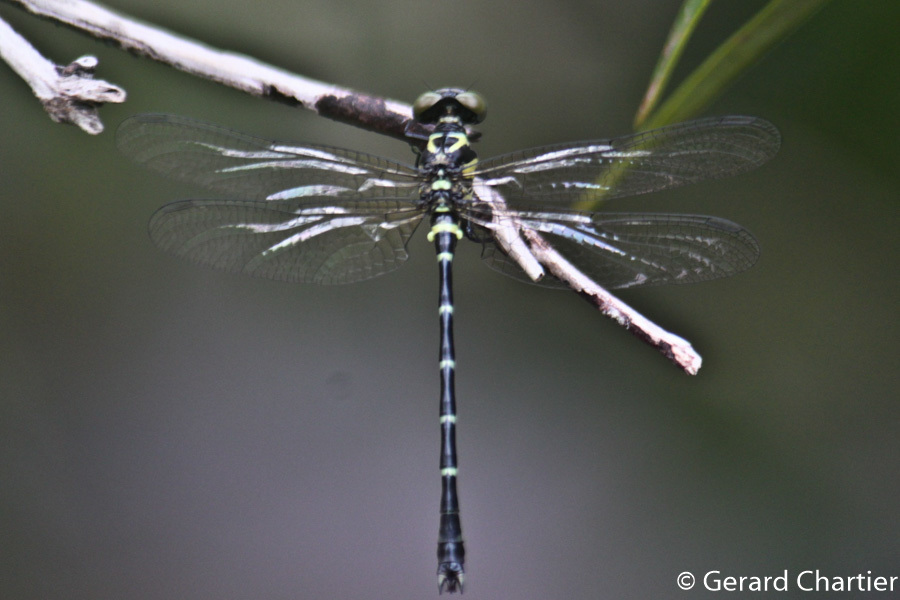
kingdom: Animalia
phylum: Arthropoda
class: Insecta
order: Odonata
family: Gomphidae
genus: Microgomphus
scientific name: Microgomphus chelifer
